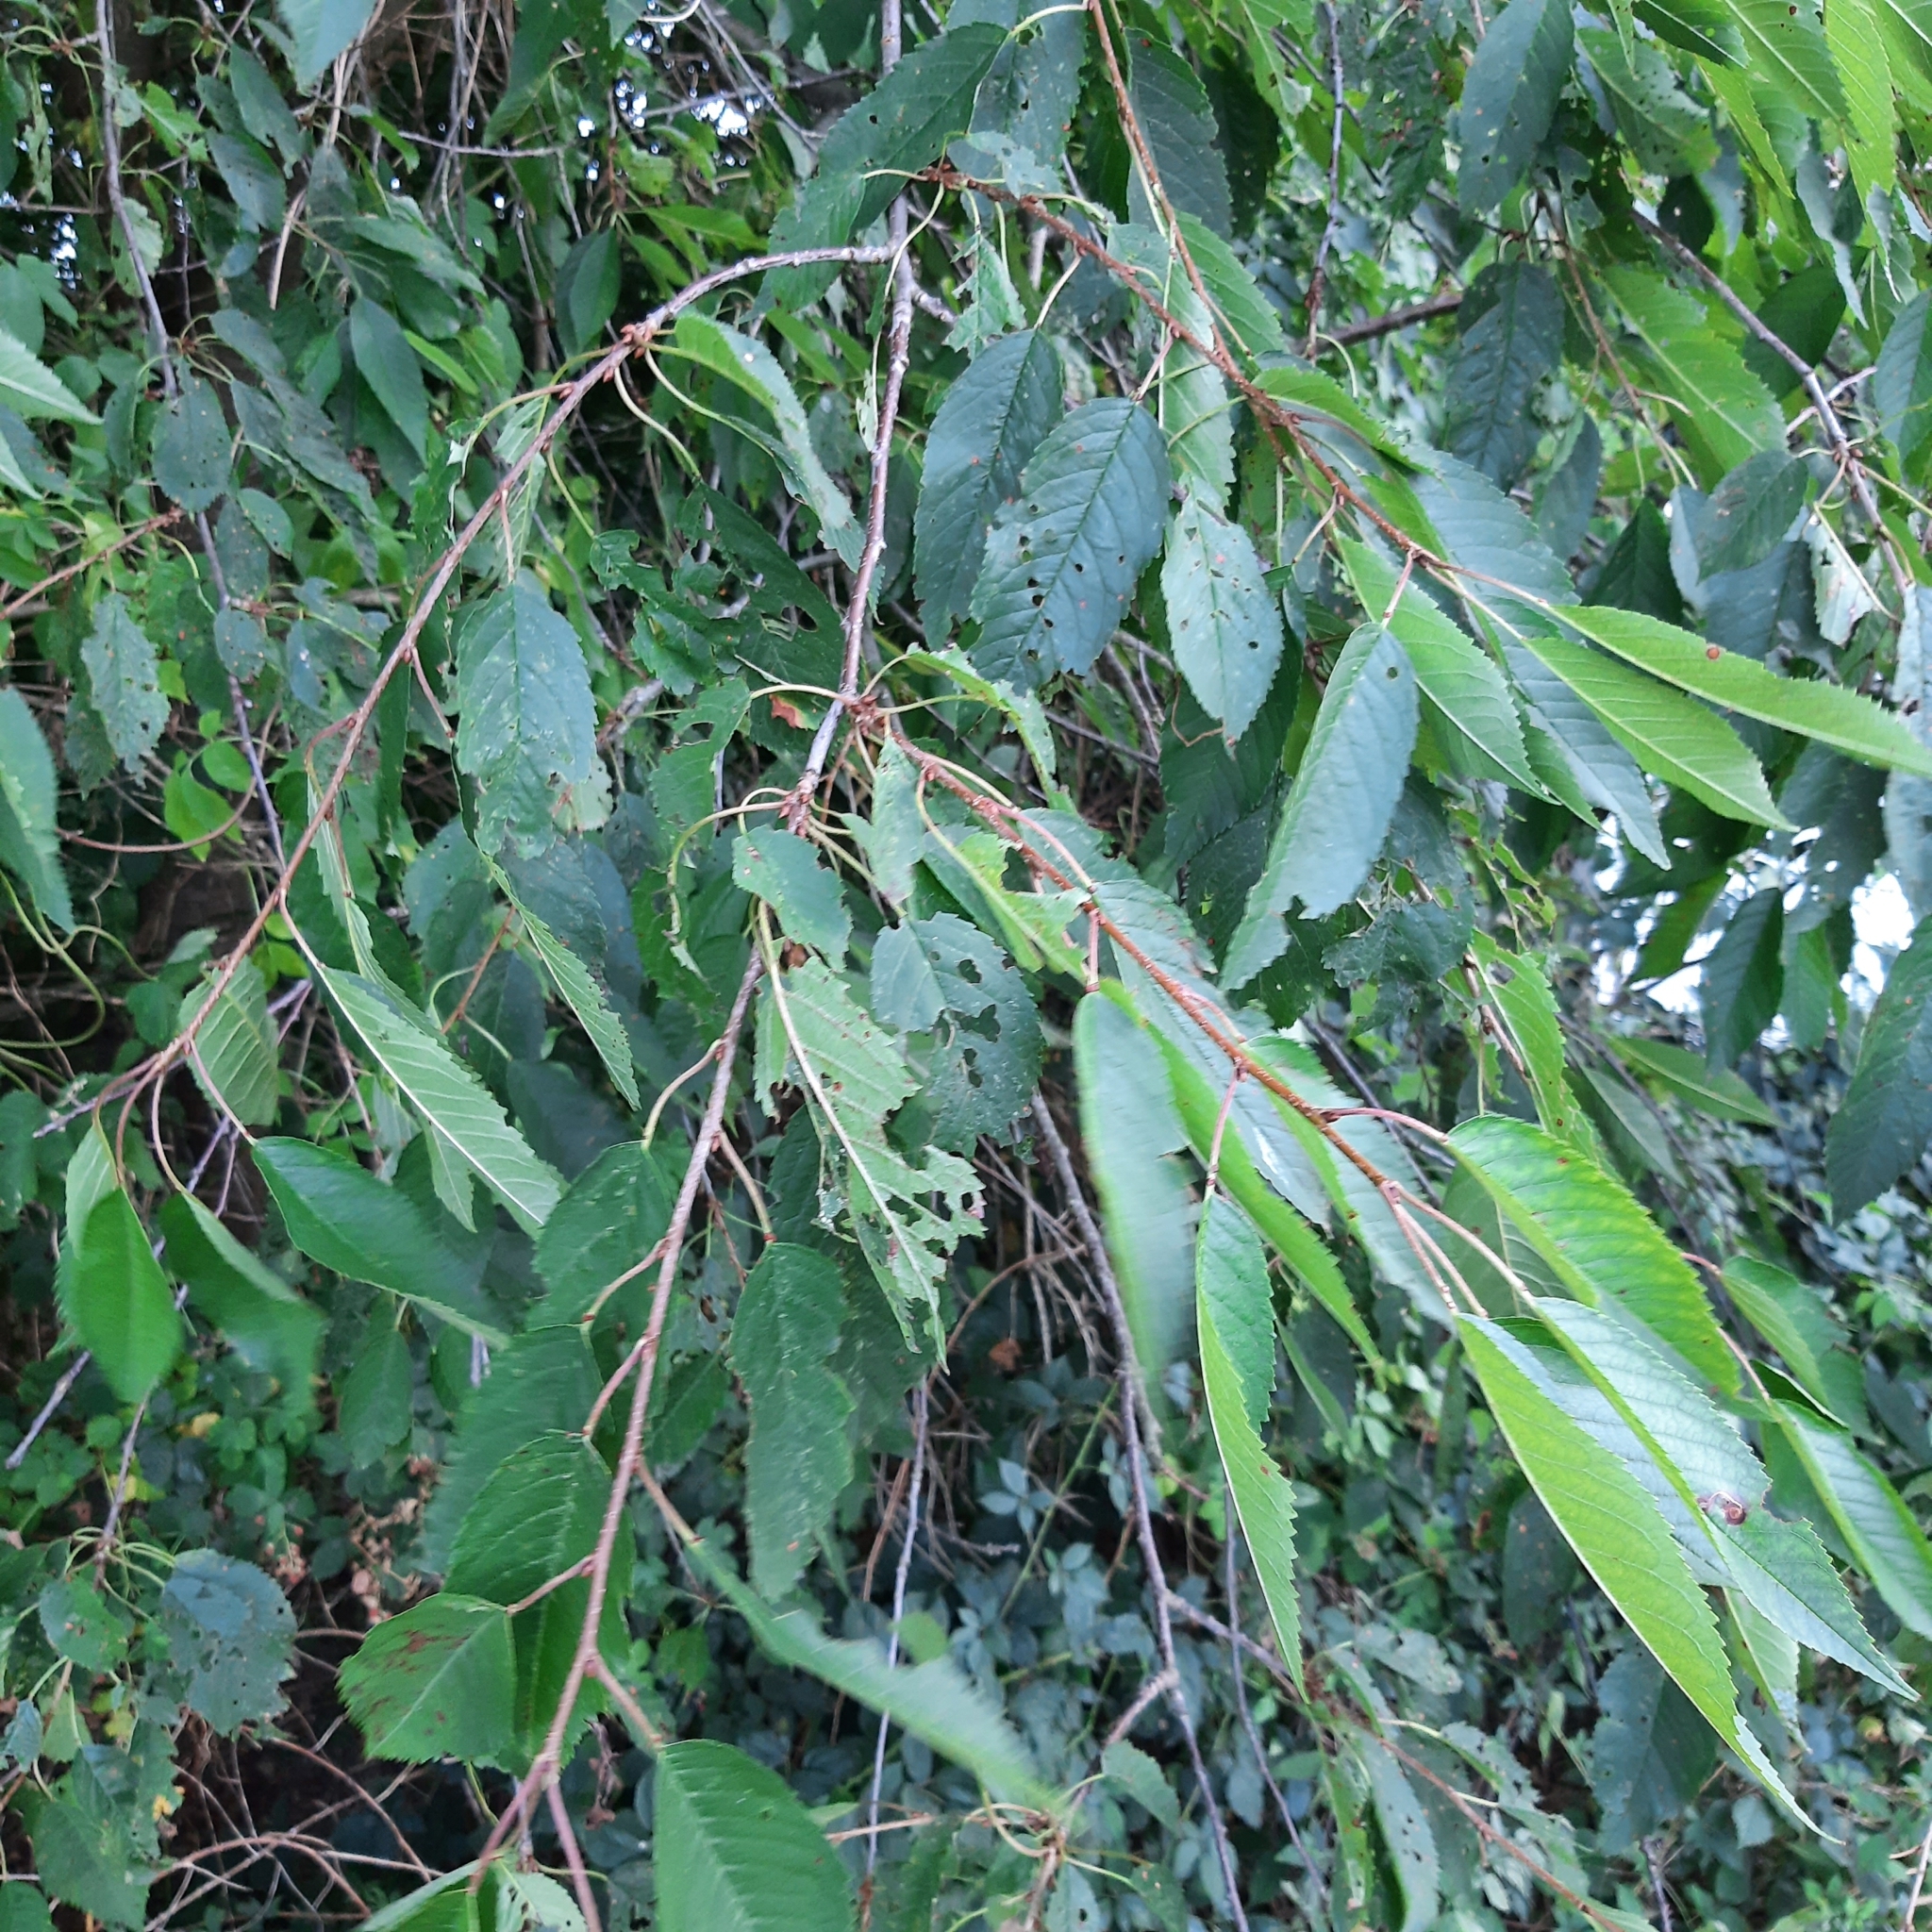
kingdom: Plantae
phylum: Tracheophyta
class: Magnoliopsida
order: Rosales
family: Rosaceae
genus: Prunus
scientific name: Prunus avium
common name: Sweet cherry
